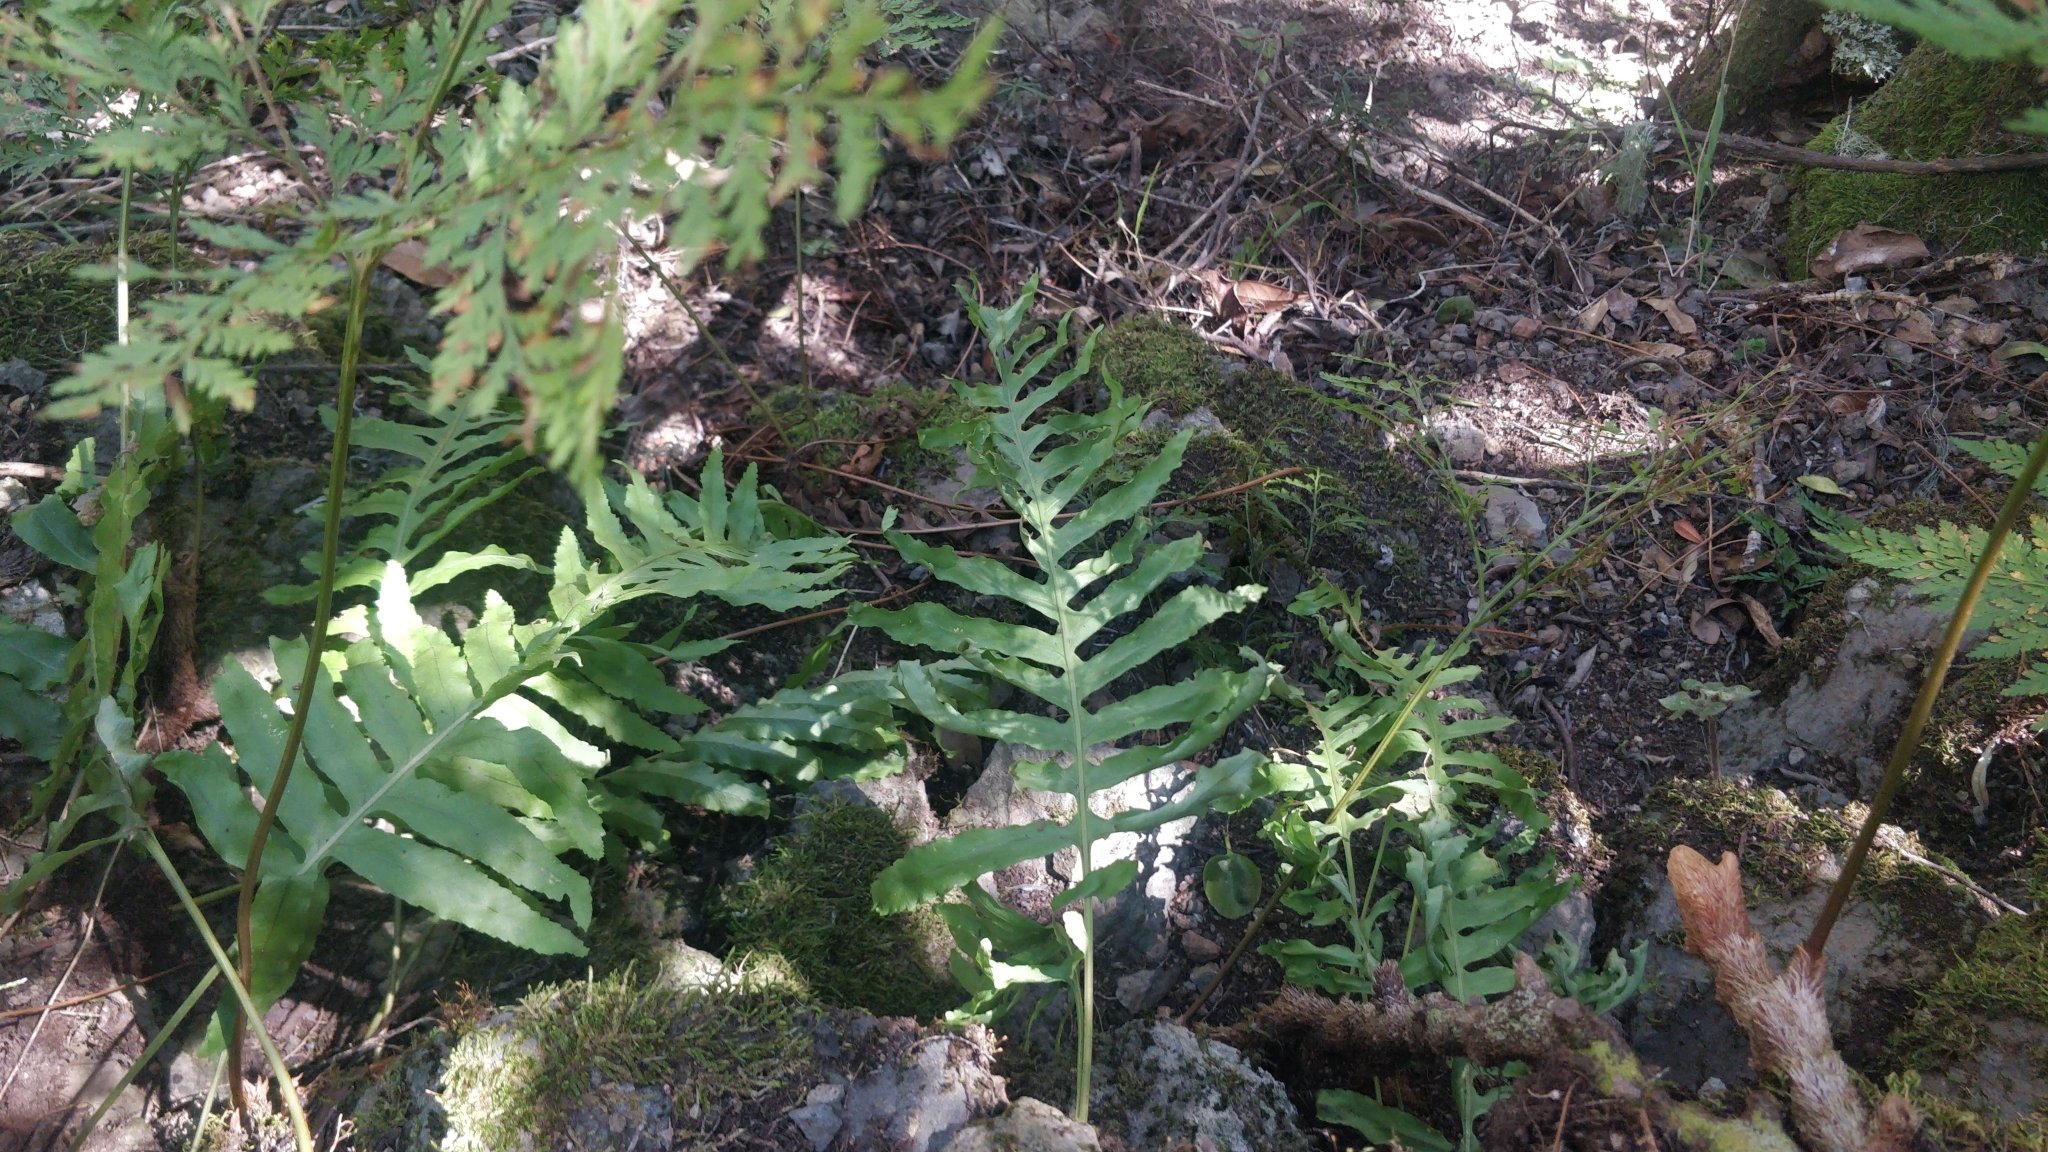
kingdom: Plantae
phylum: Tracheophyta
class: Polypodiopsida
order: Polypodiales
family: Polypodiaceae
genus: Polypodium
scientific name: Polypodium macaronesicum
